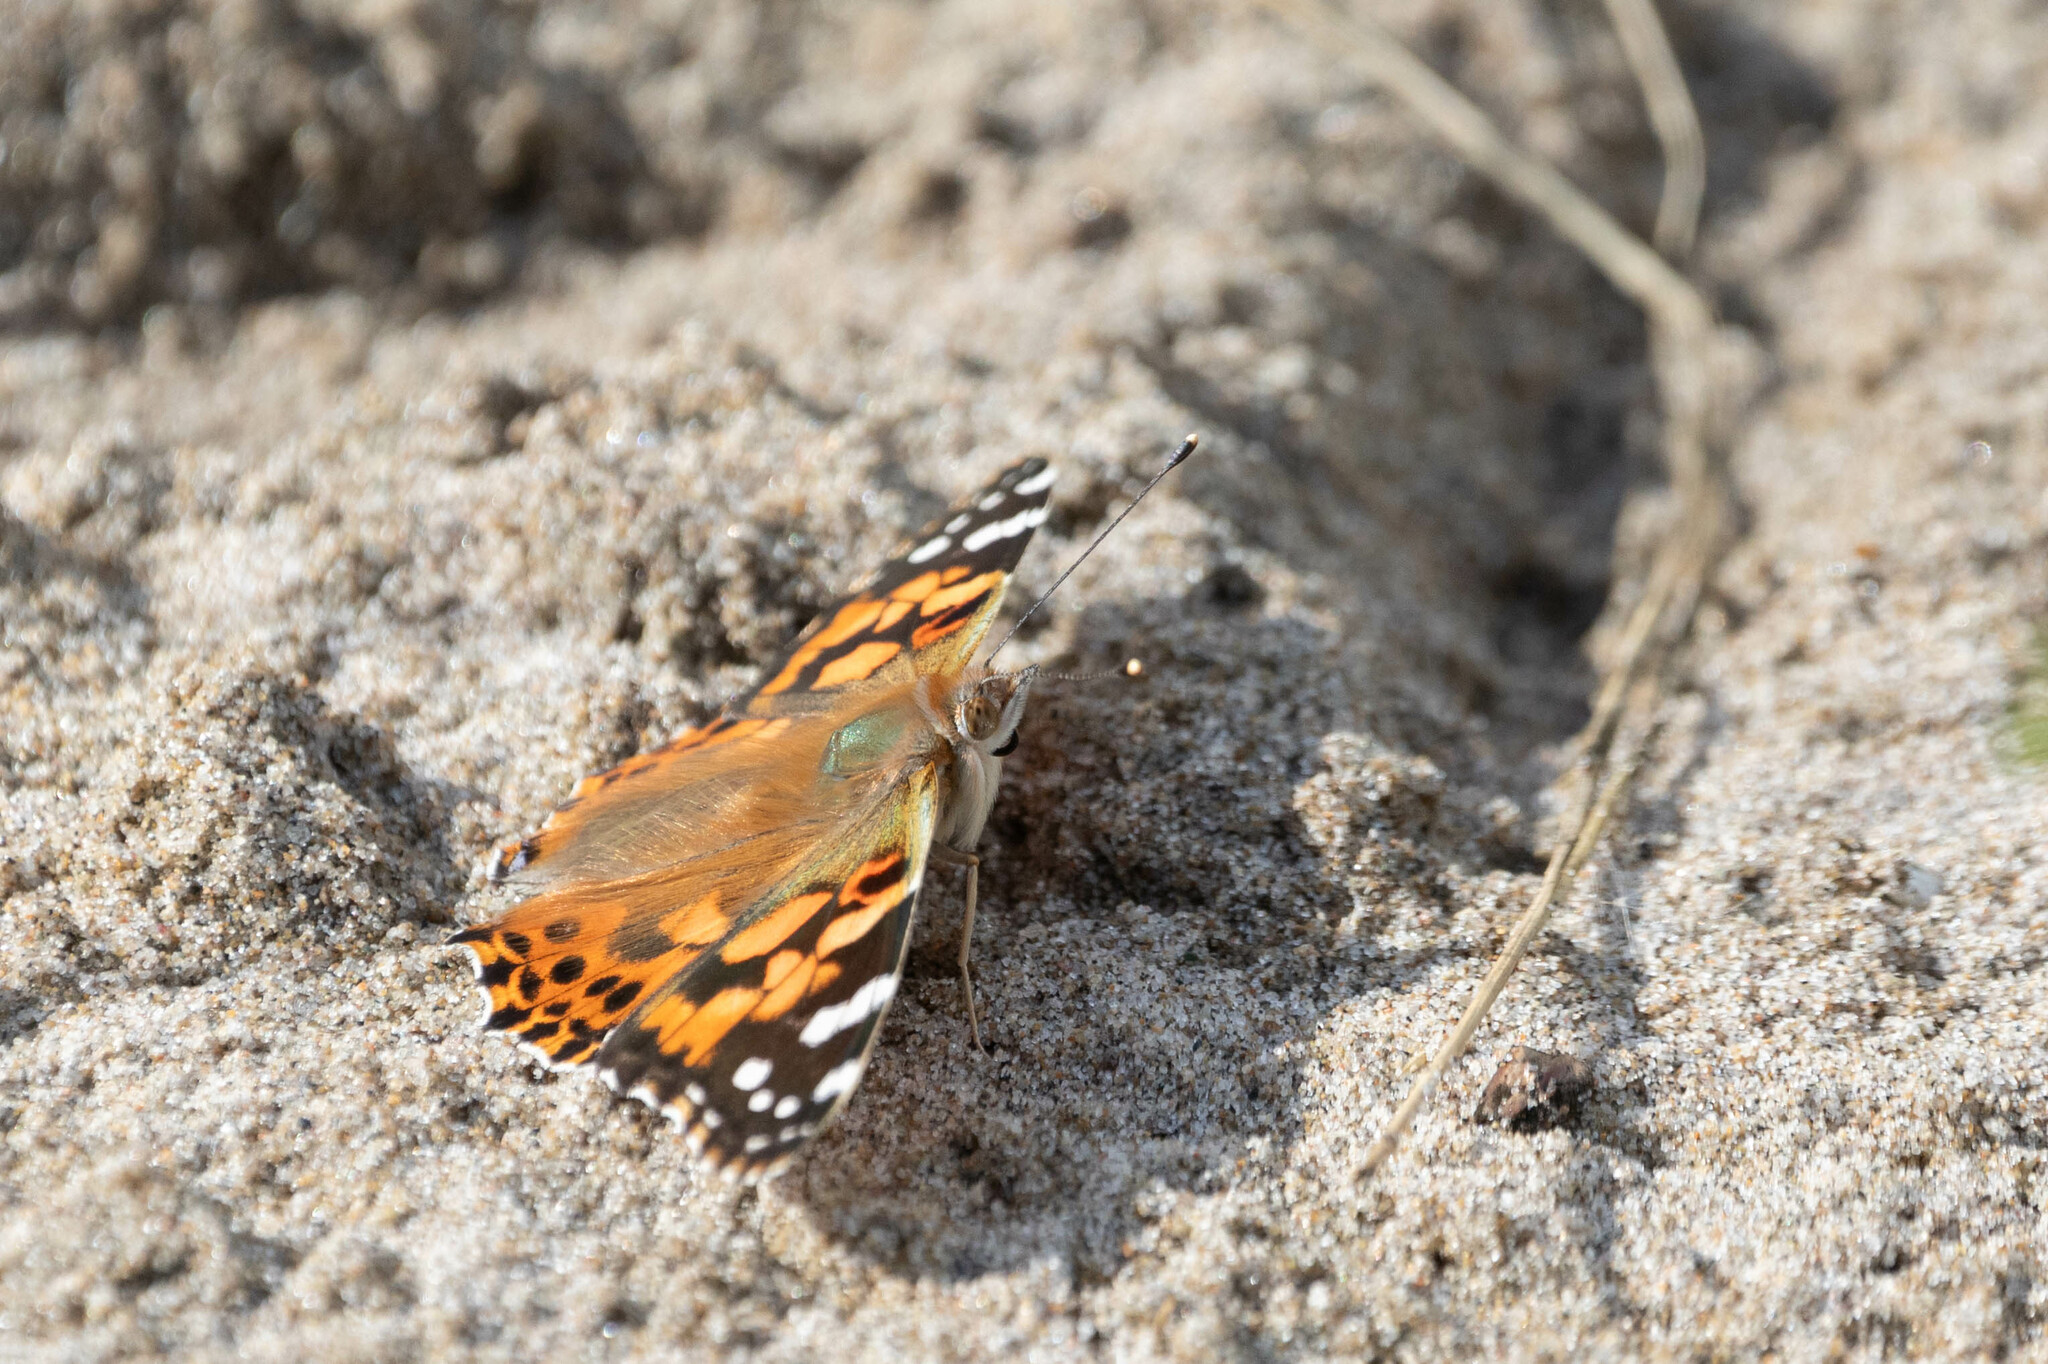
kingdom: Animalia
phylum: Arthropoda
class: Insecta
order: Lepidoptera
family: Nymphalidae
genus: Vanessa
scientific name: Vanessa cardui
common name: Painted lady
